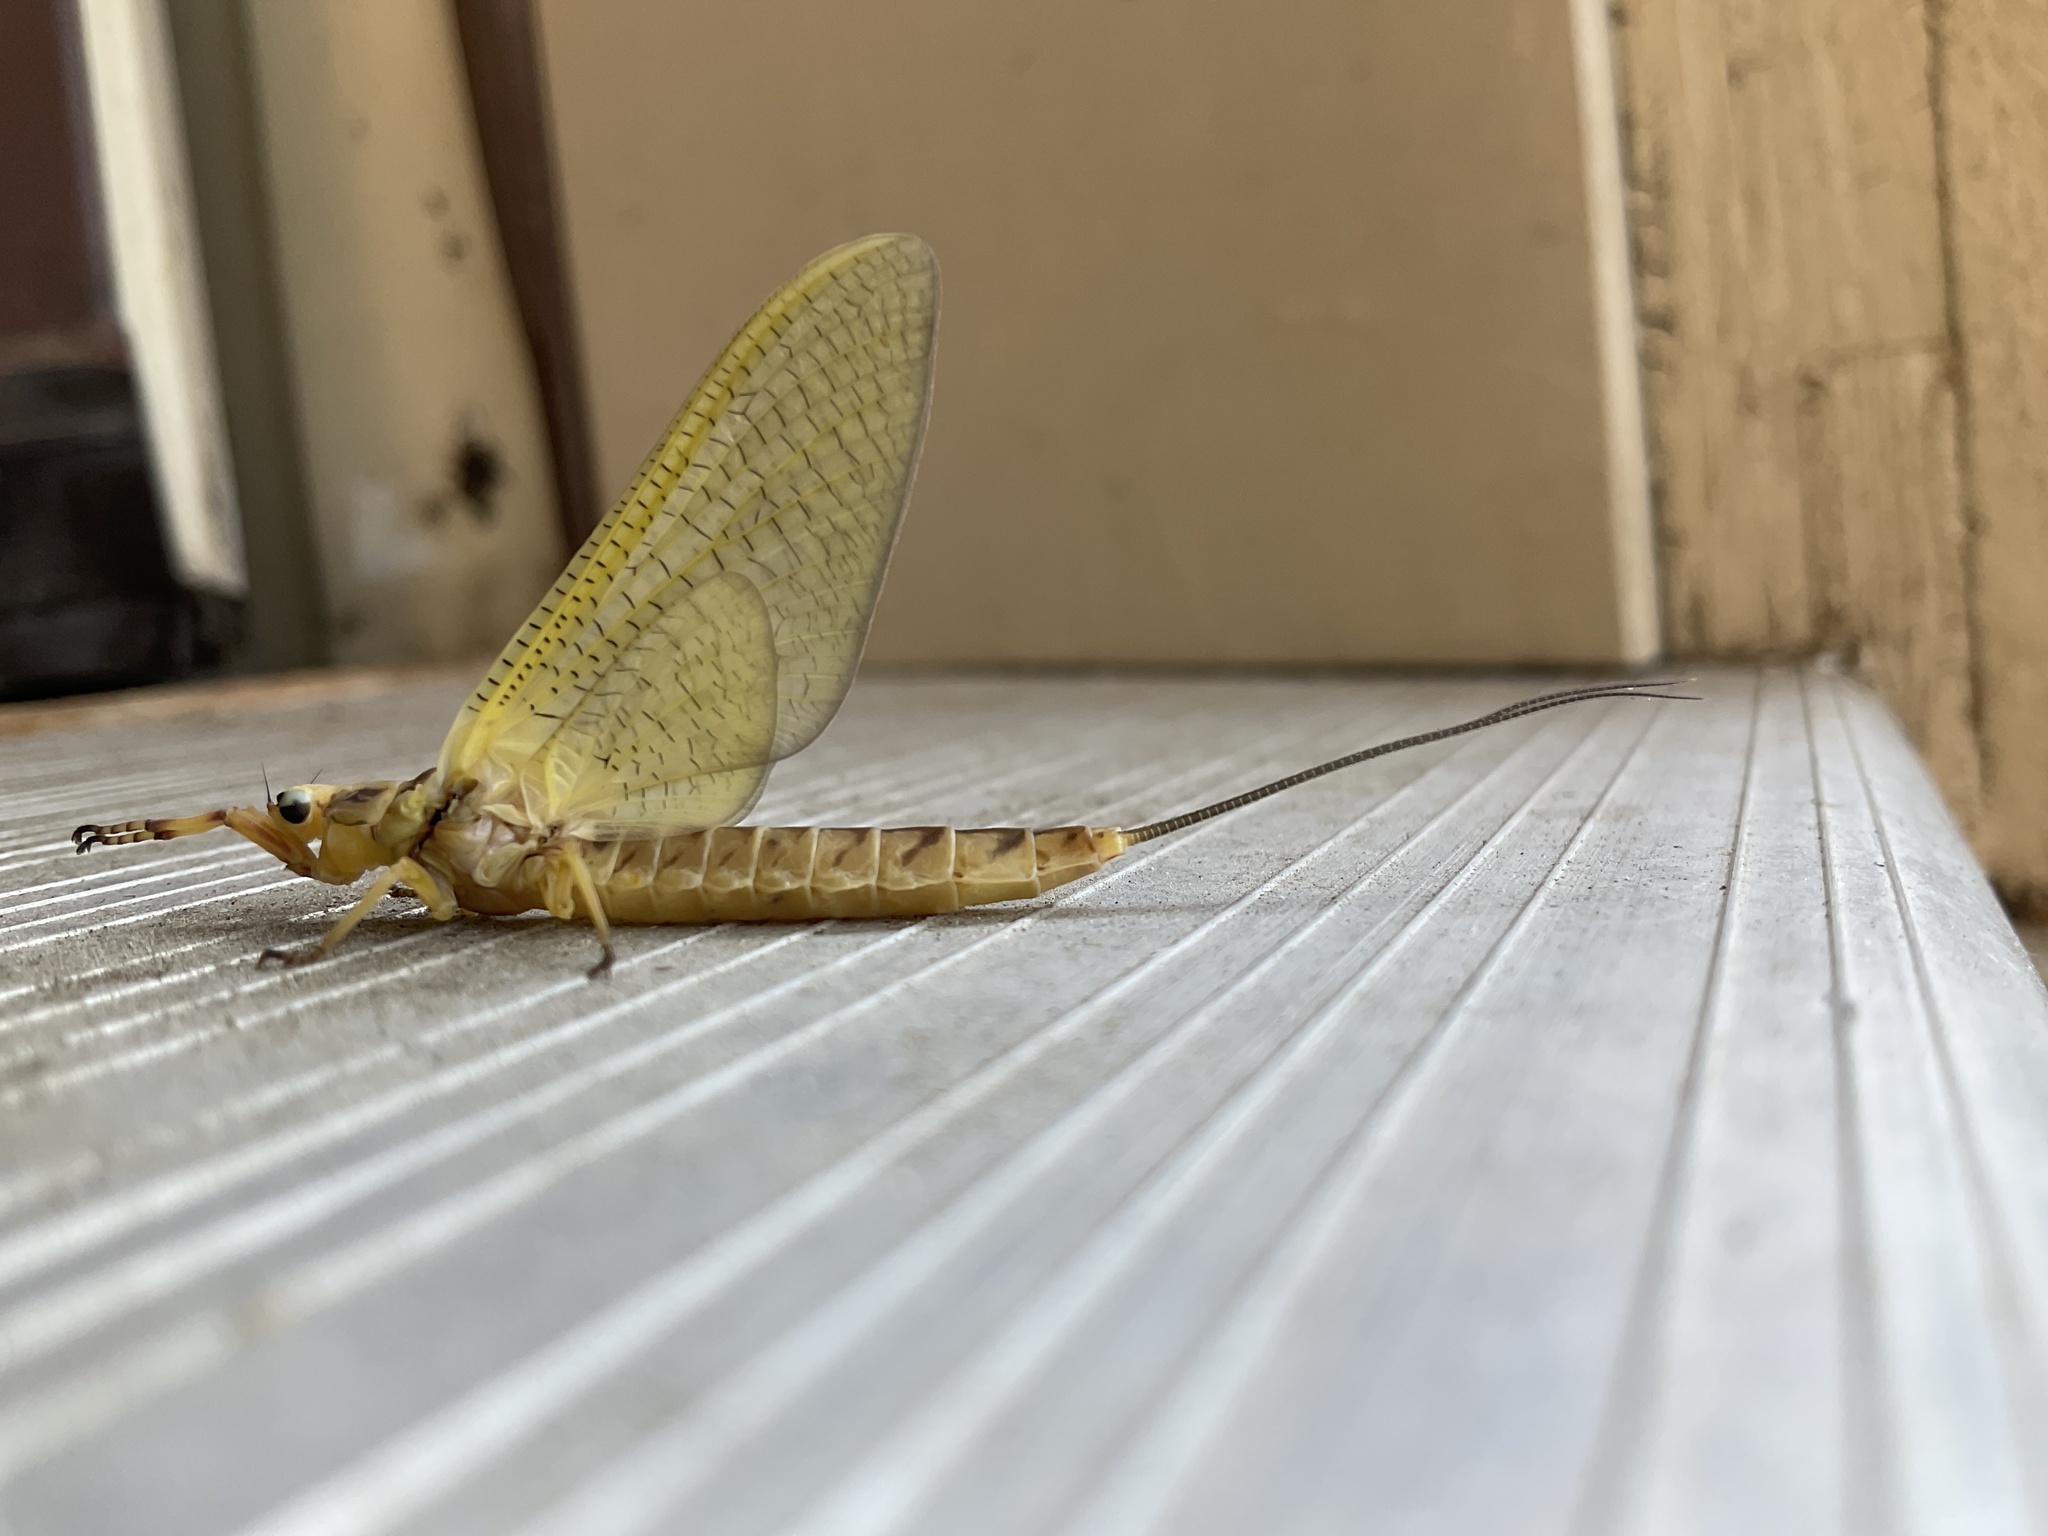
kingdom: Animalia
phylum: Arthropoda
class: Insecta
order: Ephemeroptera
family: Ephemeridae
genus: Hexagenia
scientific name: Hexagenia limbata
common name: Giant mayfly
